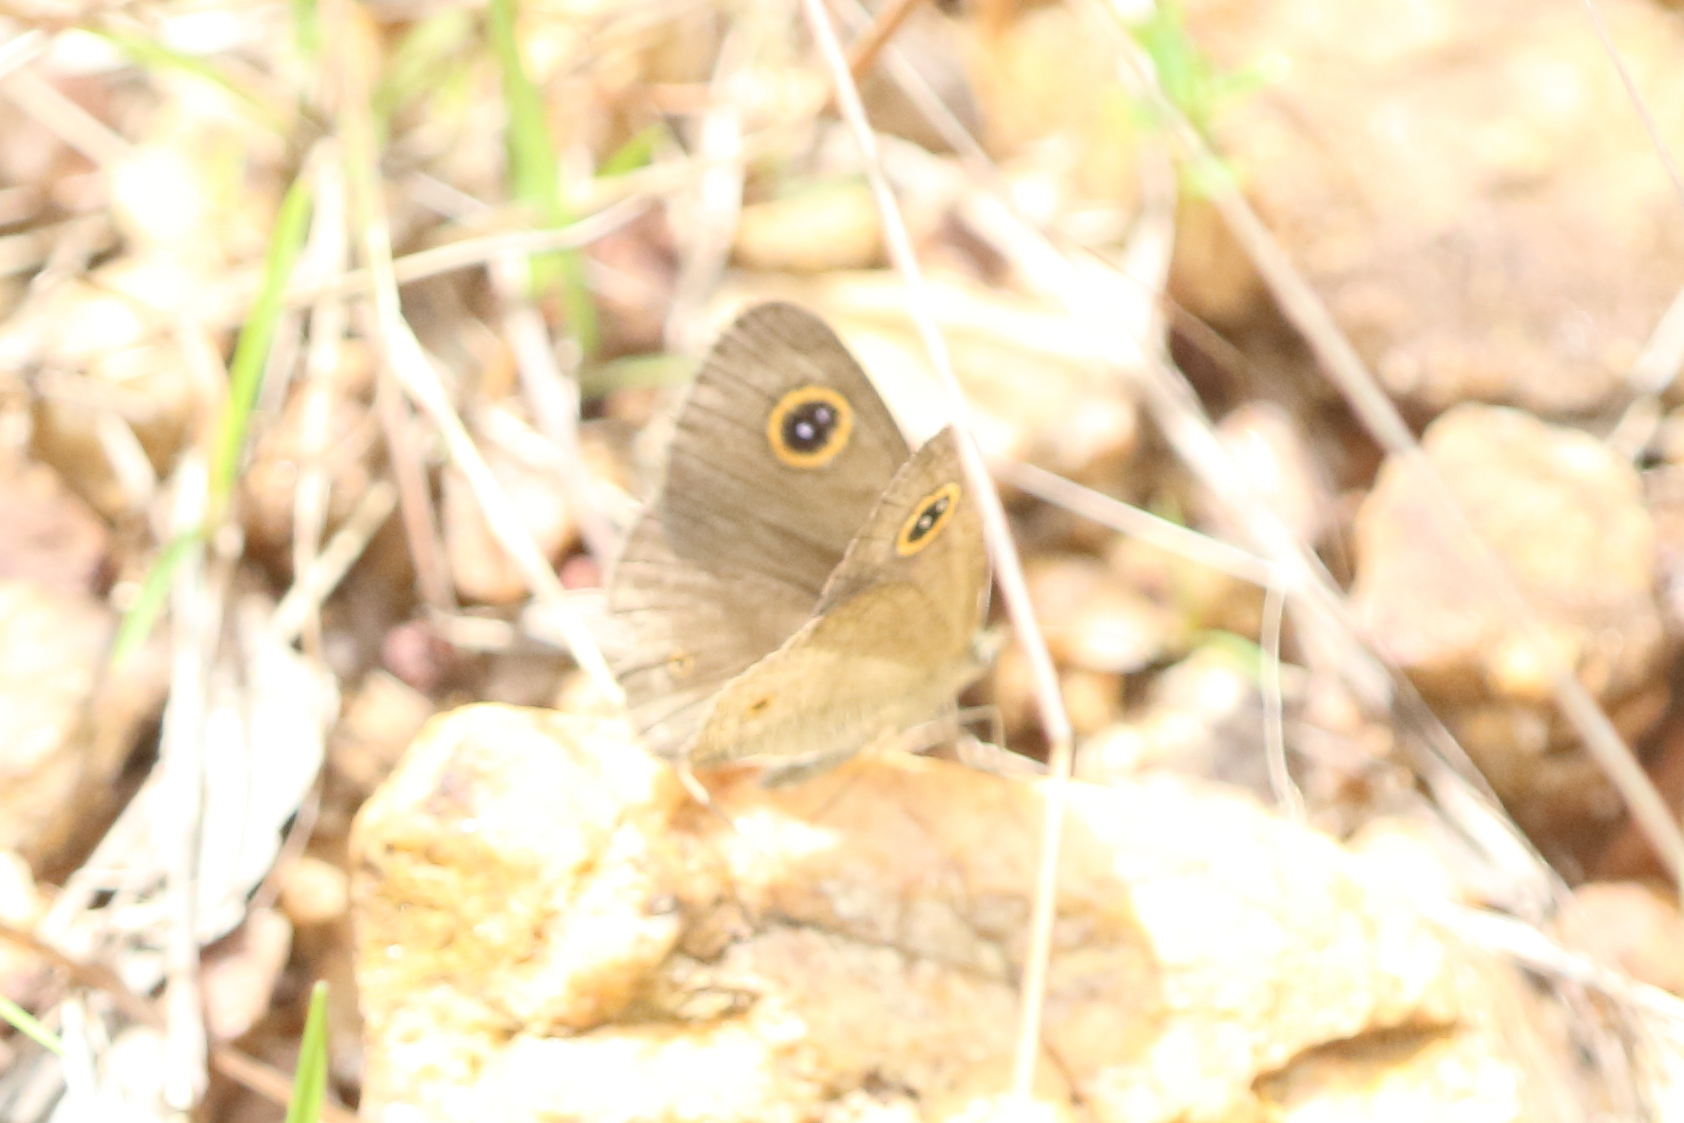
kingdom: Animalia
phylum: Arthropoda
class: Insecta
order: Lepidoptera
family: Nymphalidae
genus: Ypthima
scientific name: Ypthima arctous
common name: Dusky knight
